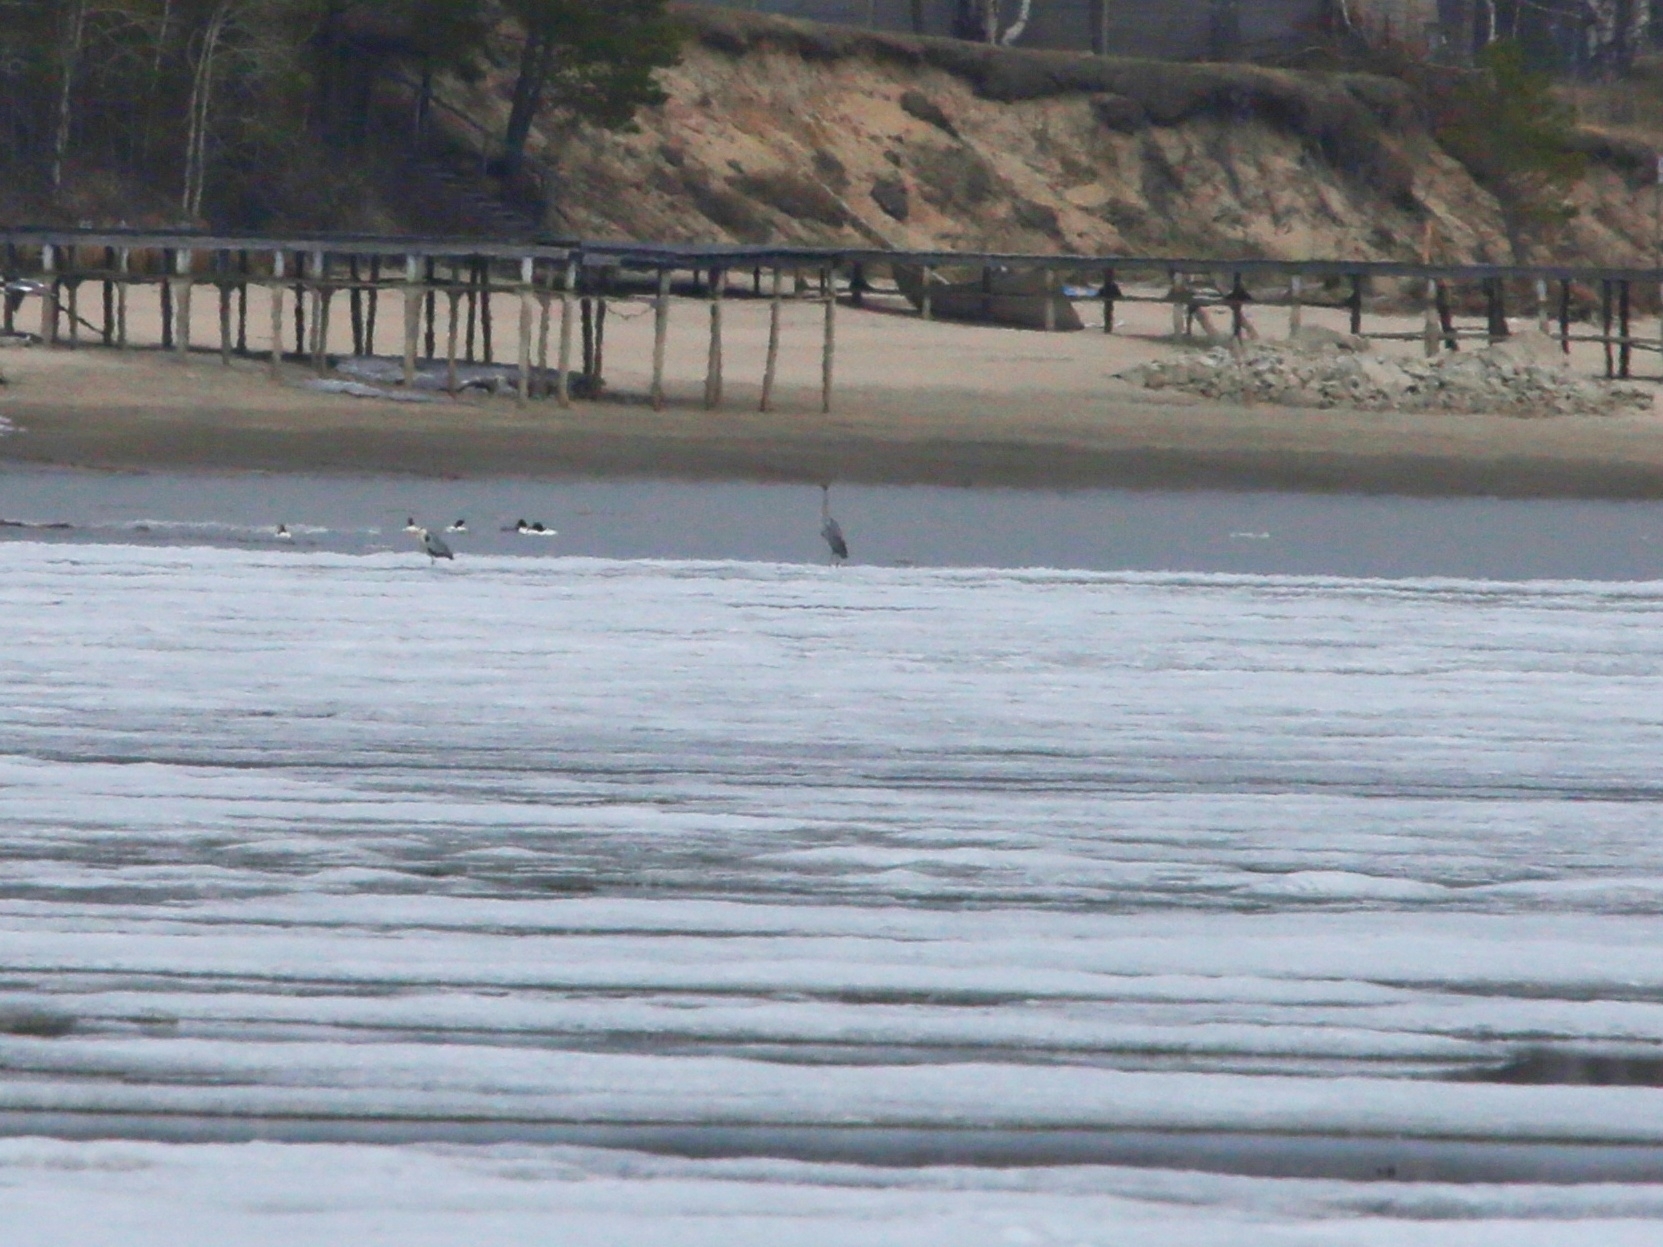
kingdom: Animalia
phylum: Chordata
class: Aves
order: Pelecaniformes
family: Ardeidae
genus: Ardea
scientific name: Ardea cinerea
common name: Grey heron
